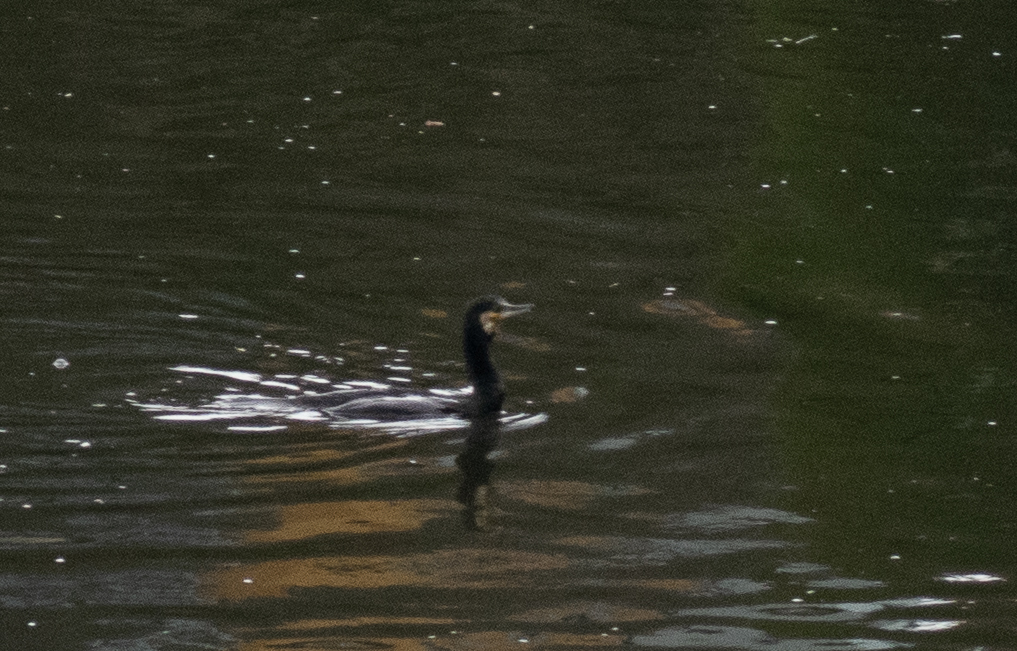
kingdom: Animalia
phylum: Chordata
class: Aves
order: Suliformes
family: Phalacrocoracidae
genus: Phalacrocorax
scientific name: Phalacrocorax carbo
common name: Great cormorant
